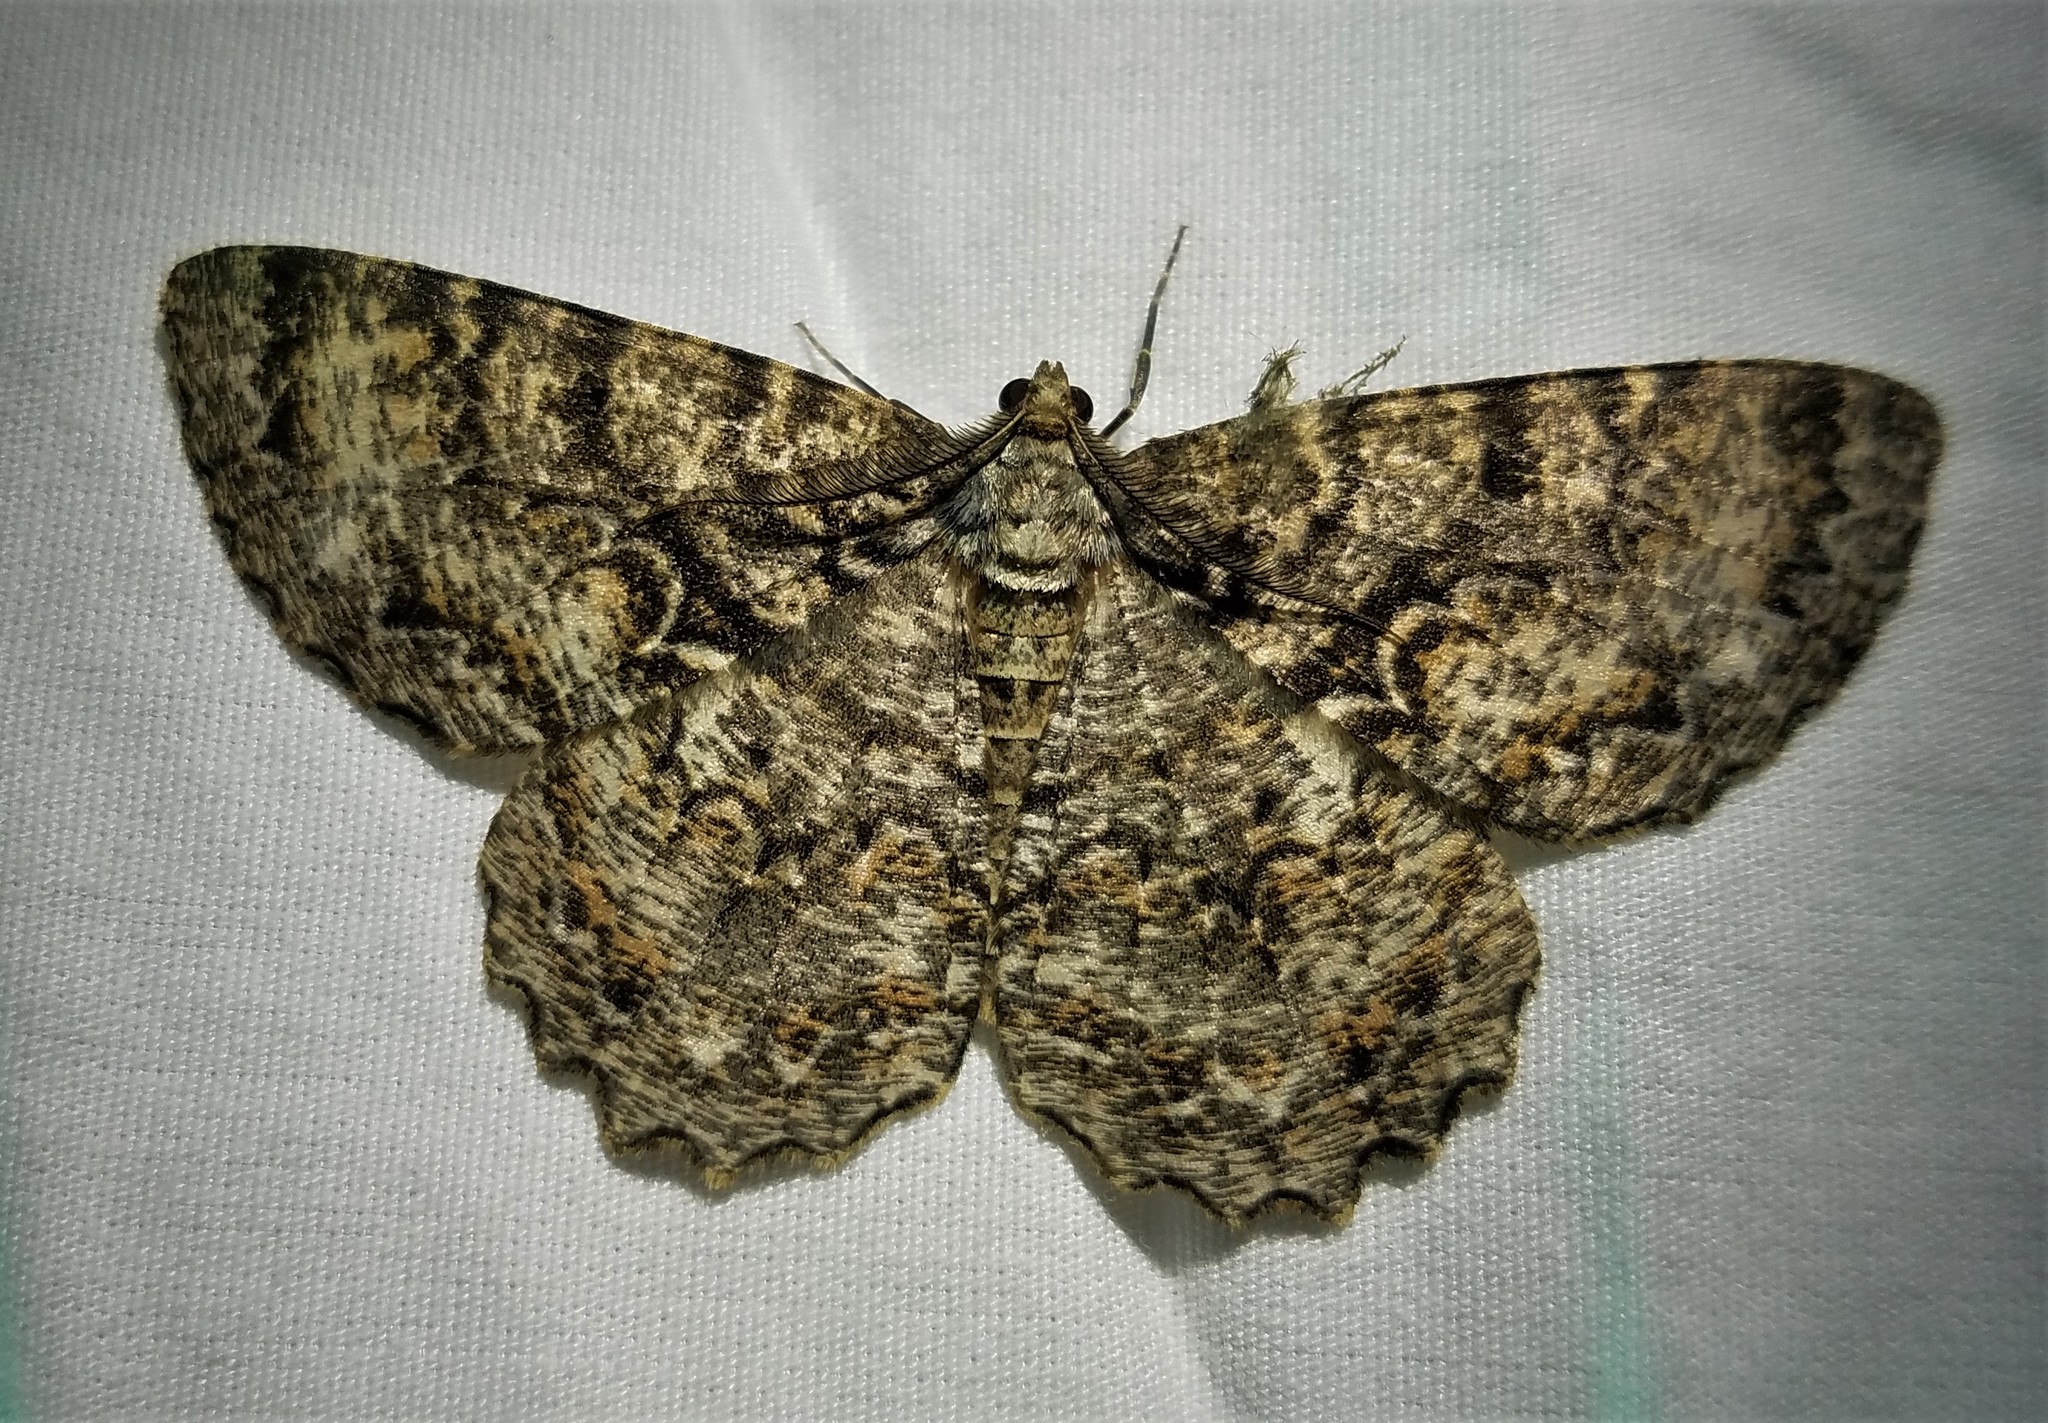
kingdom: Animalia
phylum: Arthropoda
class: Insecta
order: Lepidoptera
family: Geometridae
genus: Epimecis
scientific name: Epimecis hortaria
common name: Tulip-tree beauty
